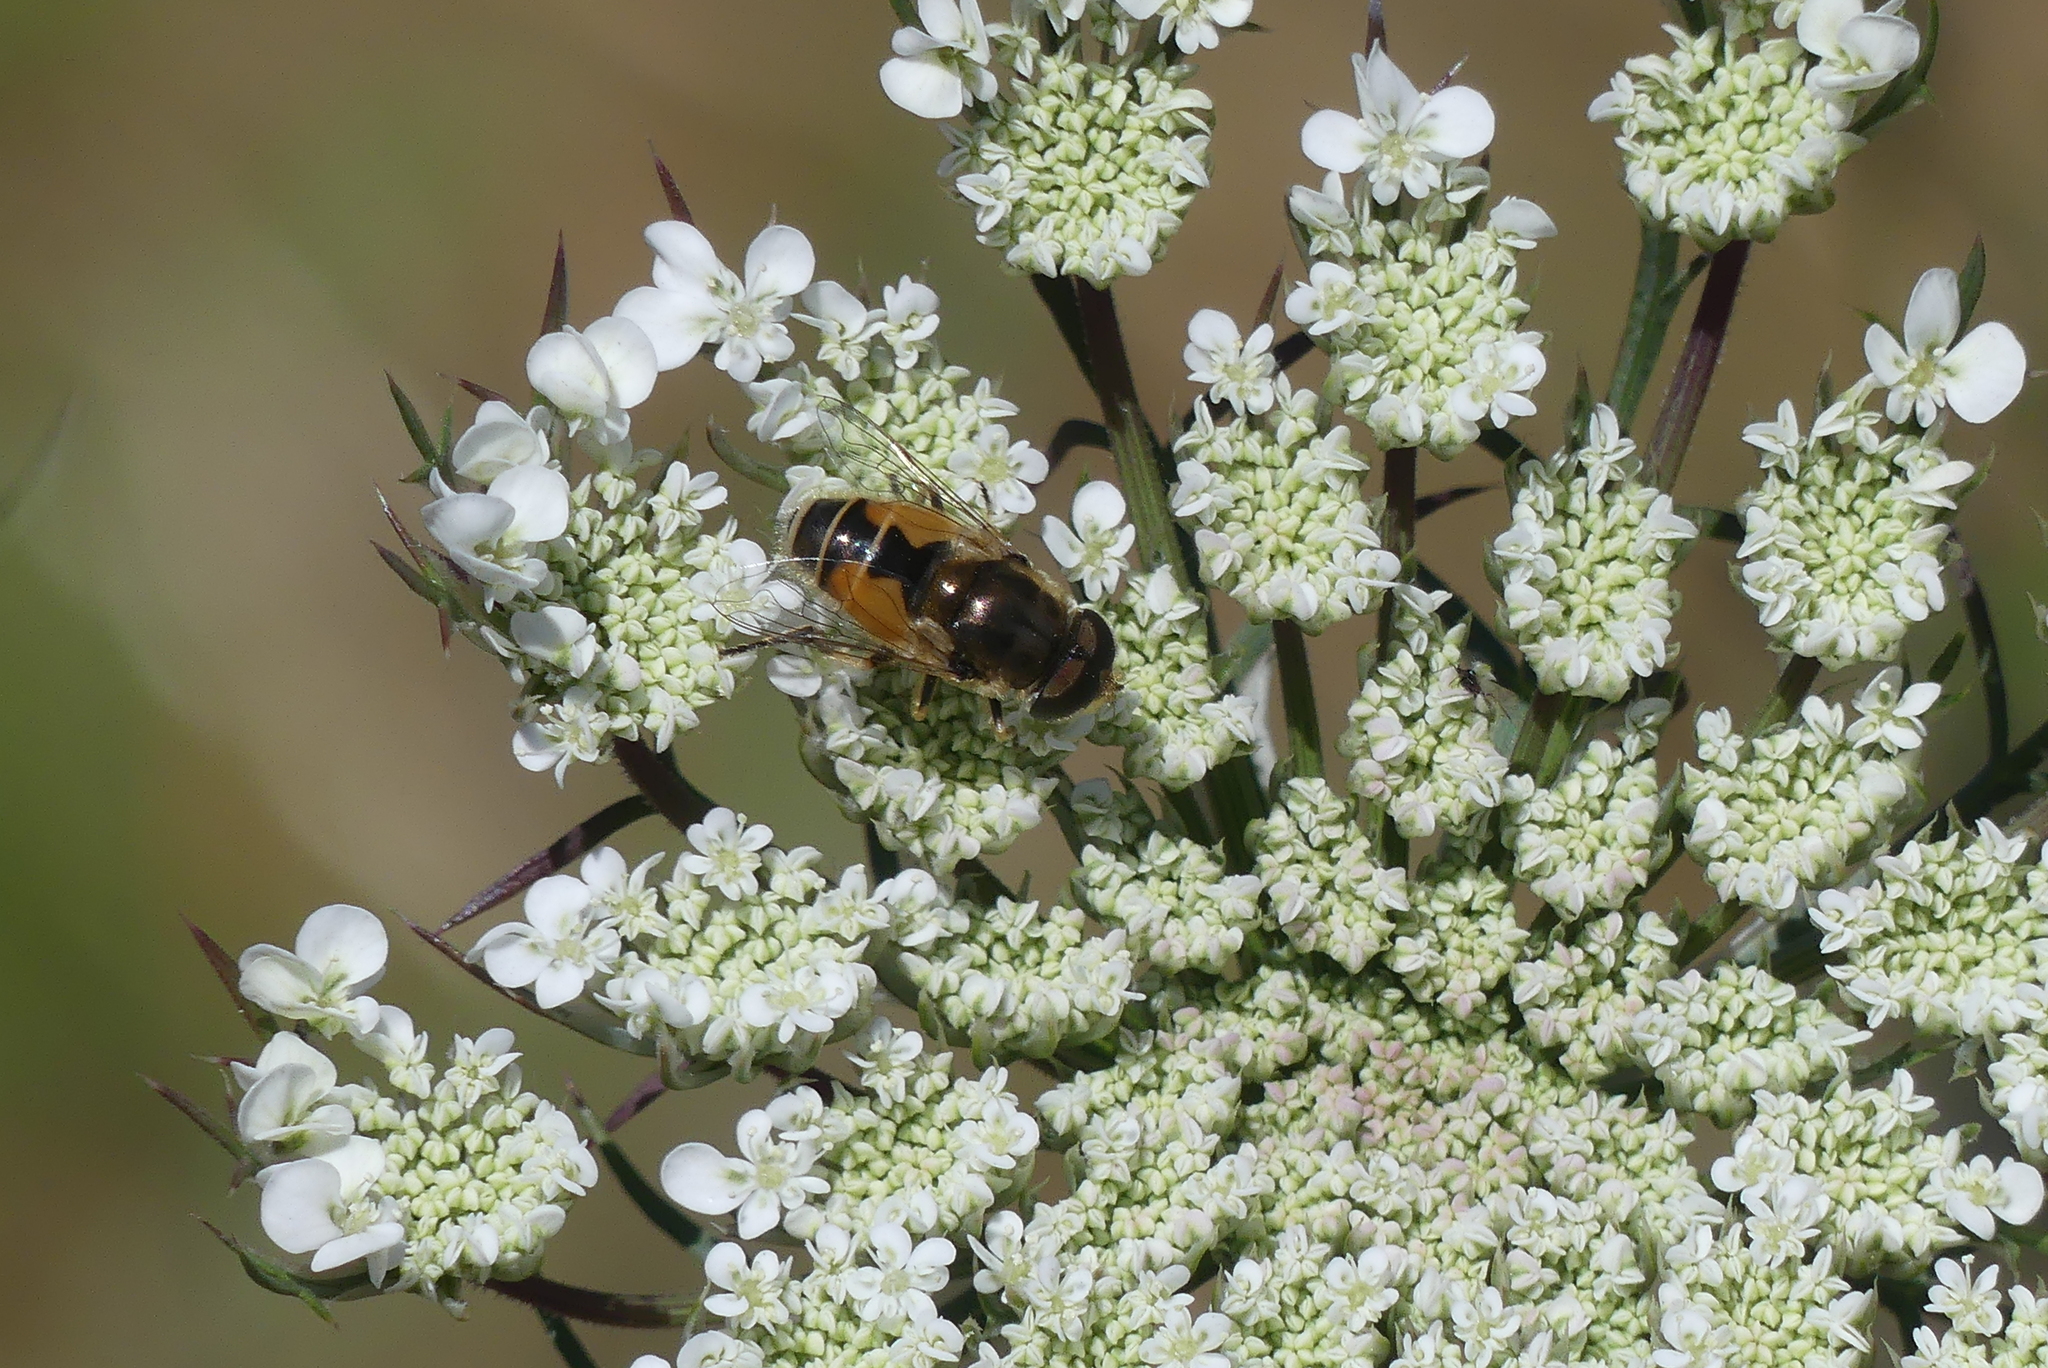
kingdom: Animalia
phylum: Arthropoda
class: Insecta
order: Diptera
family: Syrphidae
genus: Eristalis
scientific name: Eristalis arbustorum
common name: Hover fly
